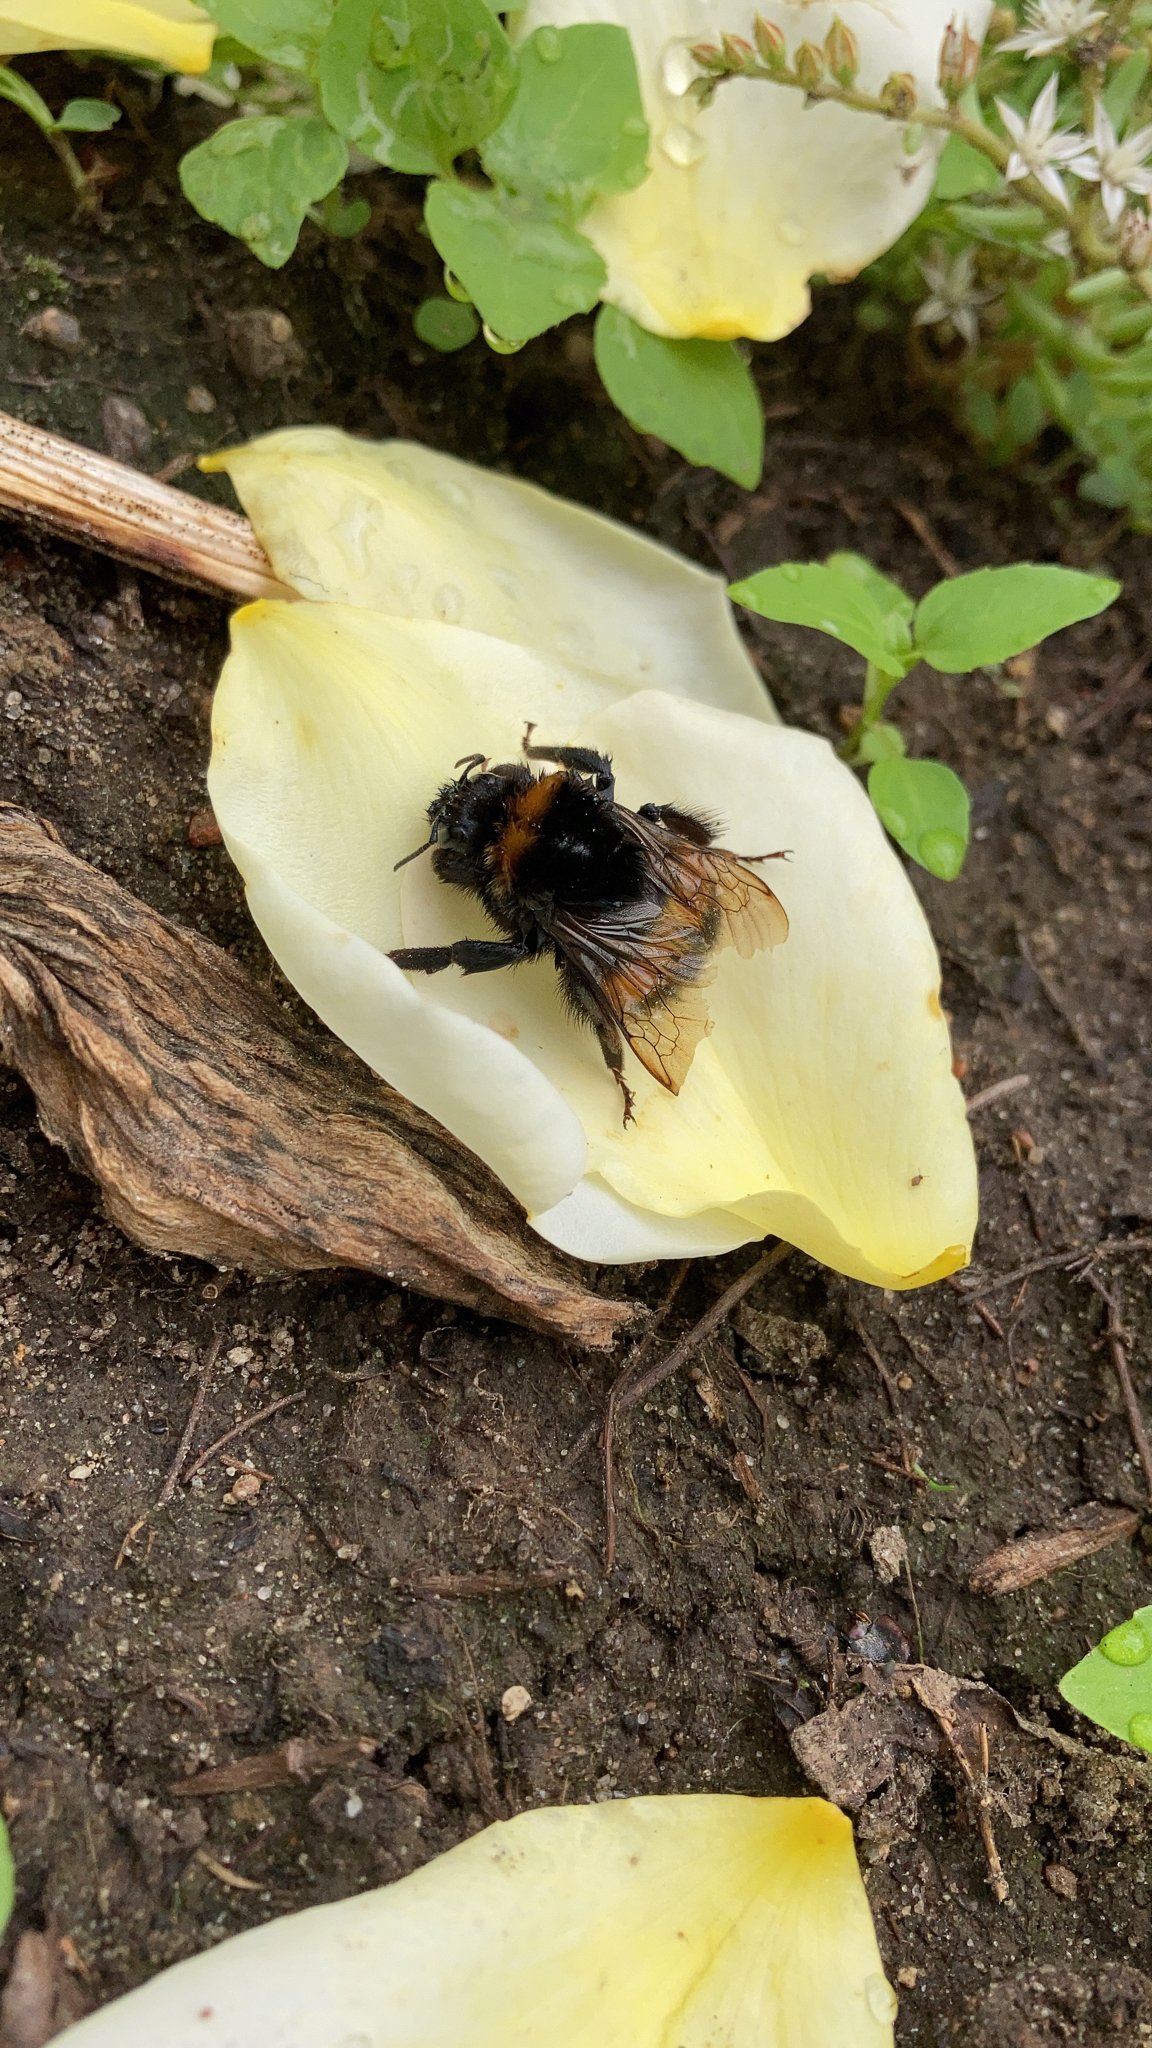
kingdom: Animalia
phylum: Arthropoda
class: Insecta
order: Hymenoptera
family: Apidae
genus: Bombus
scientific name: Bombus terrestris
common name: Buff-tailed bumblebee
